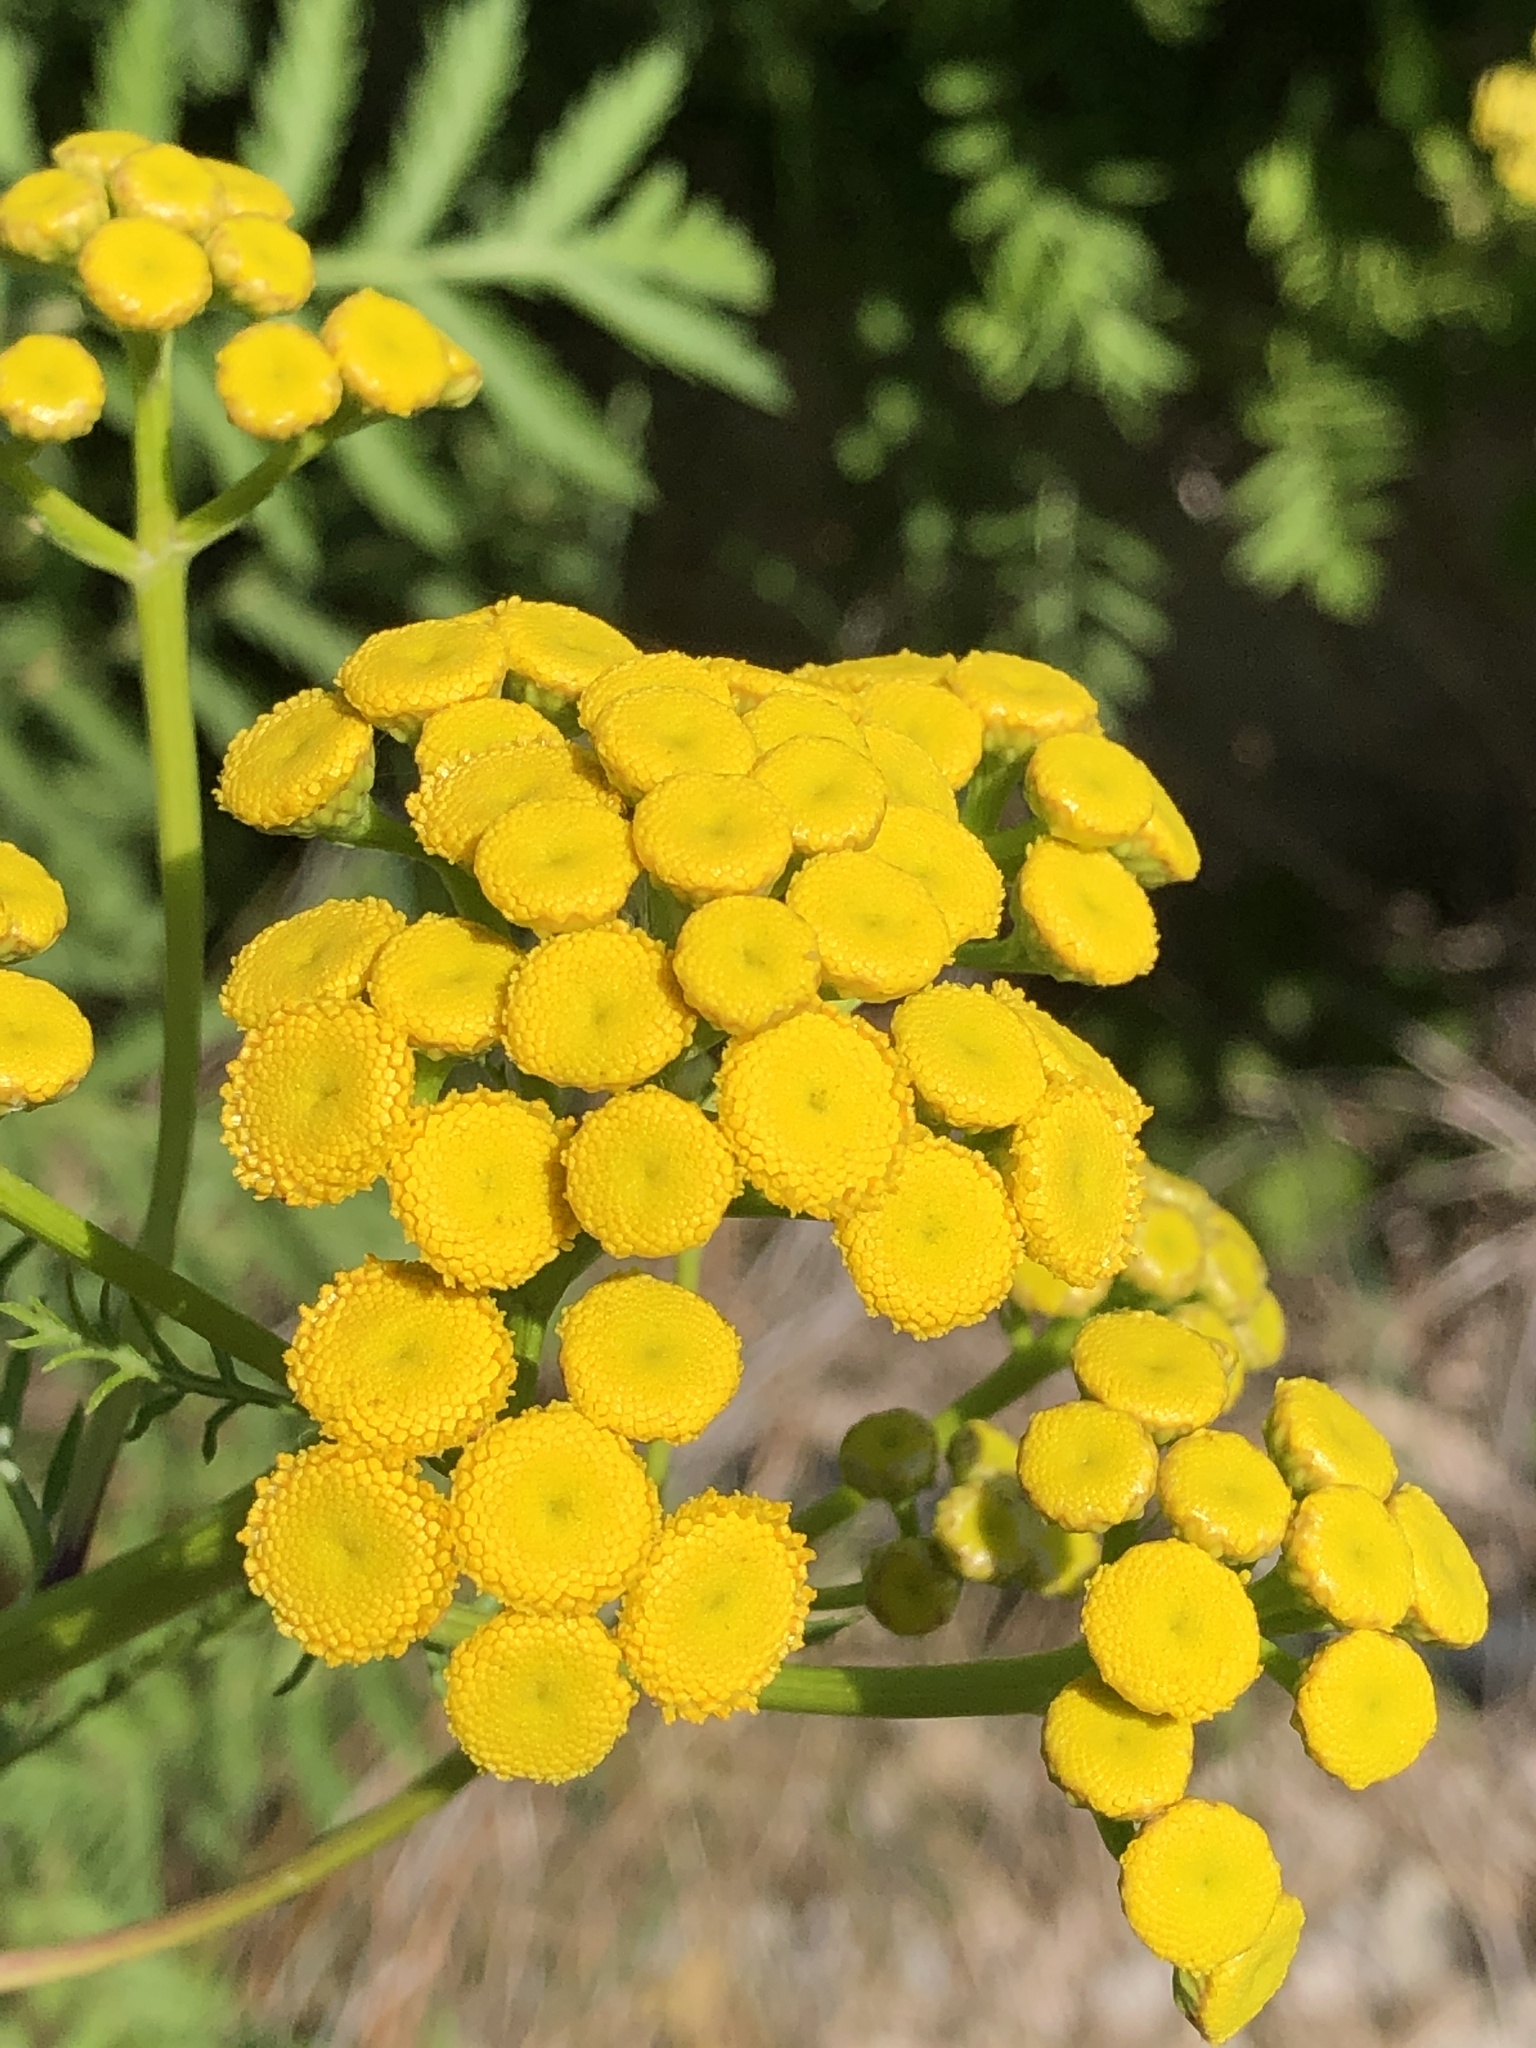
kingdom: Plantae
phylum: Tracheophyta
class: Magnoliopsida
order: Asterales
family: Asteraceae
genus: Tanacetum
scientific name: Tanacetum vulgare
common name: Common tansy
